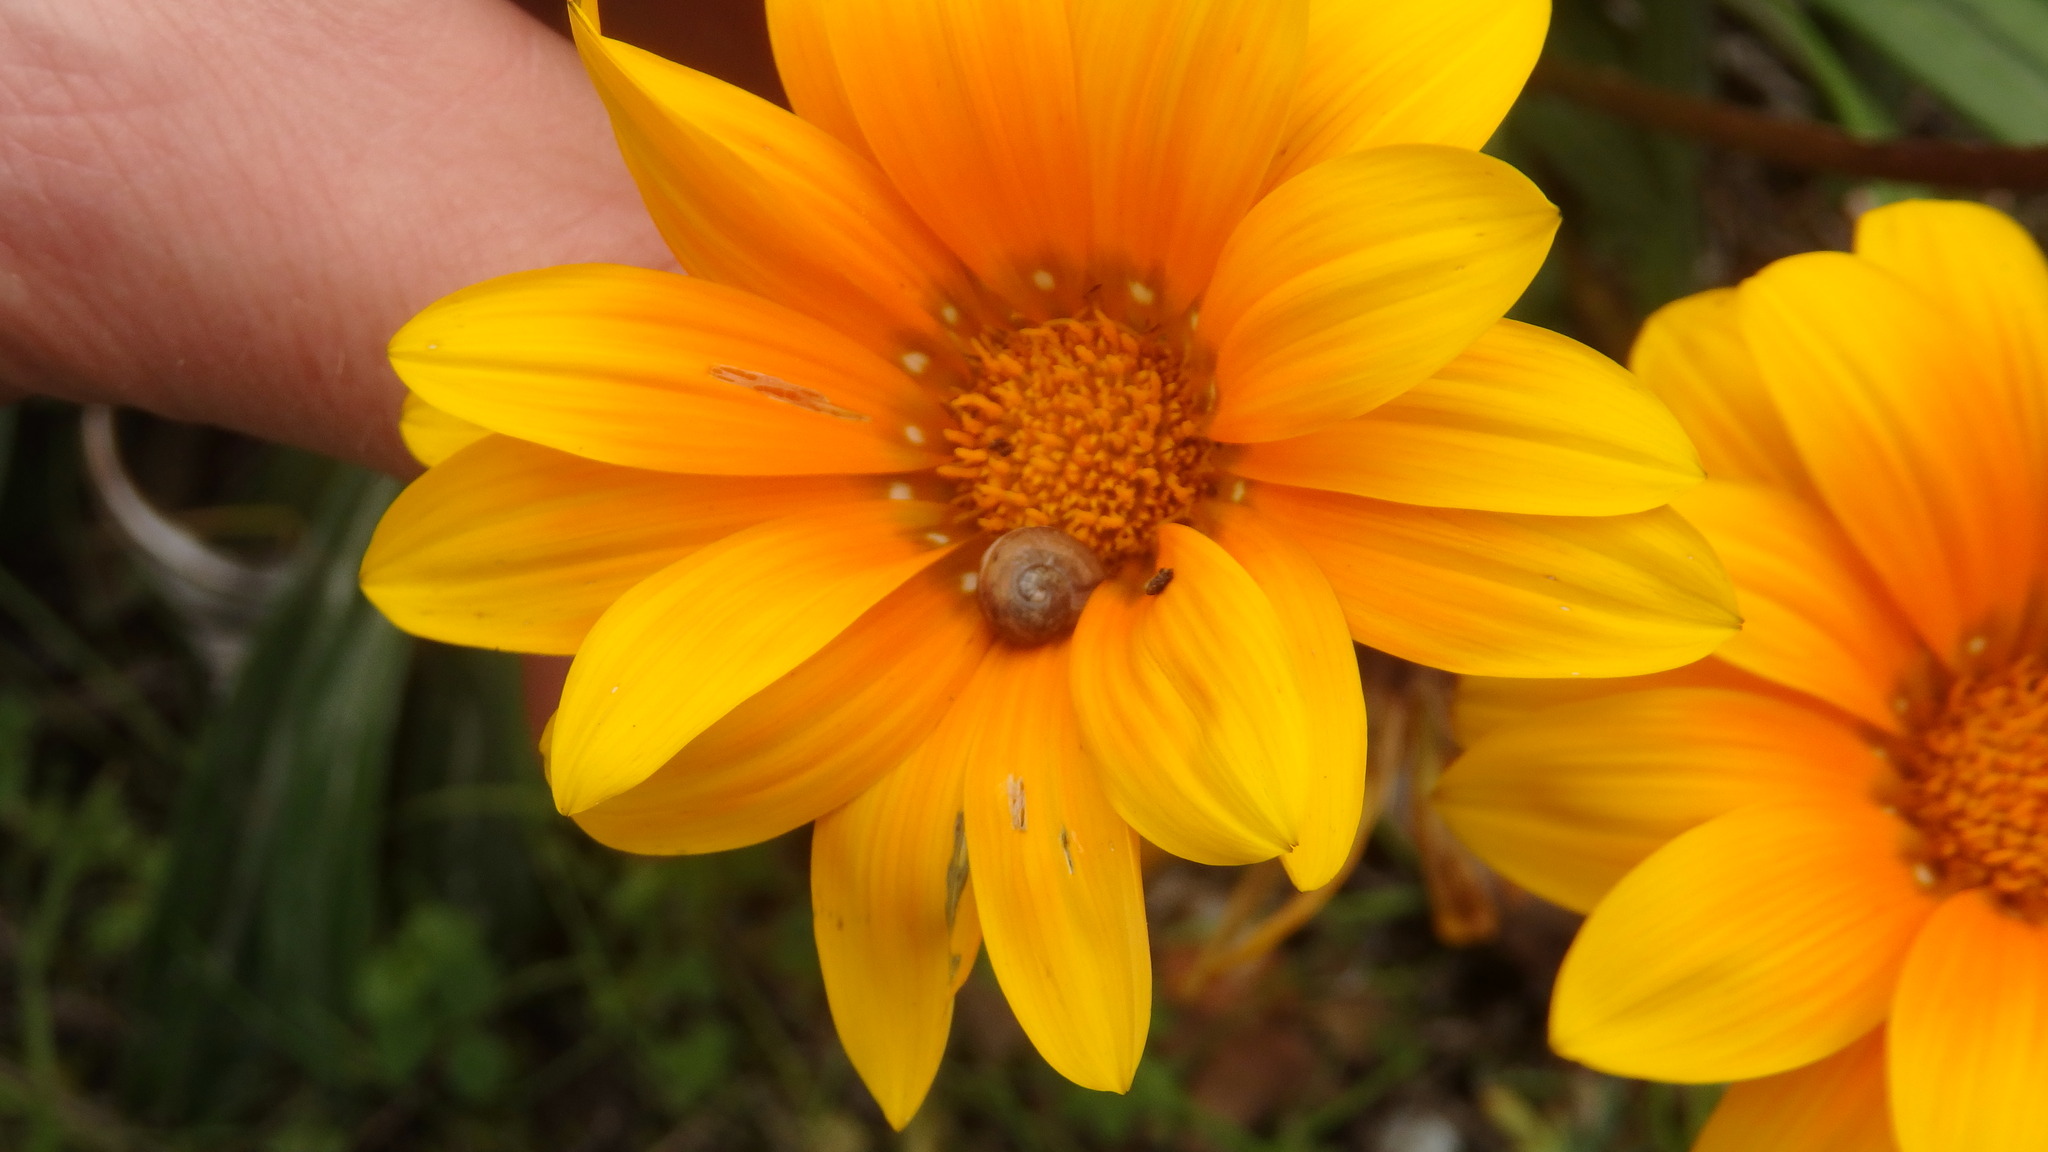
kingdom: Plantae
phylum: Tracheophyta
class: Magnoliopsida
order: Asterales
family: Asteraceae
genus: Gazania
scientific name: Gazania splendens
